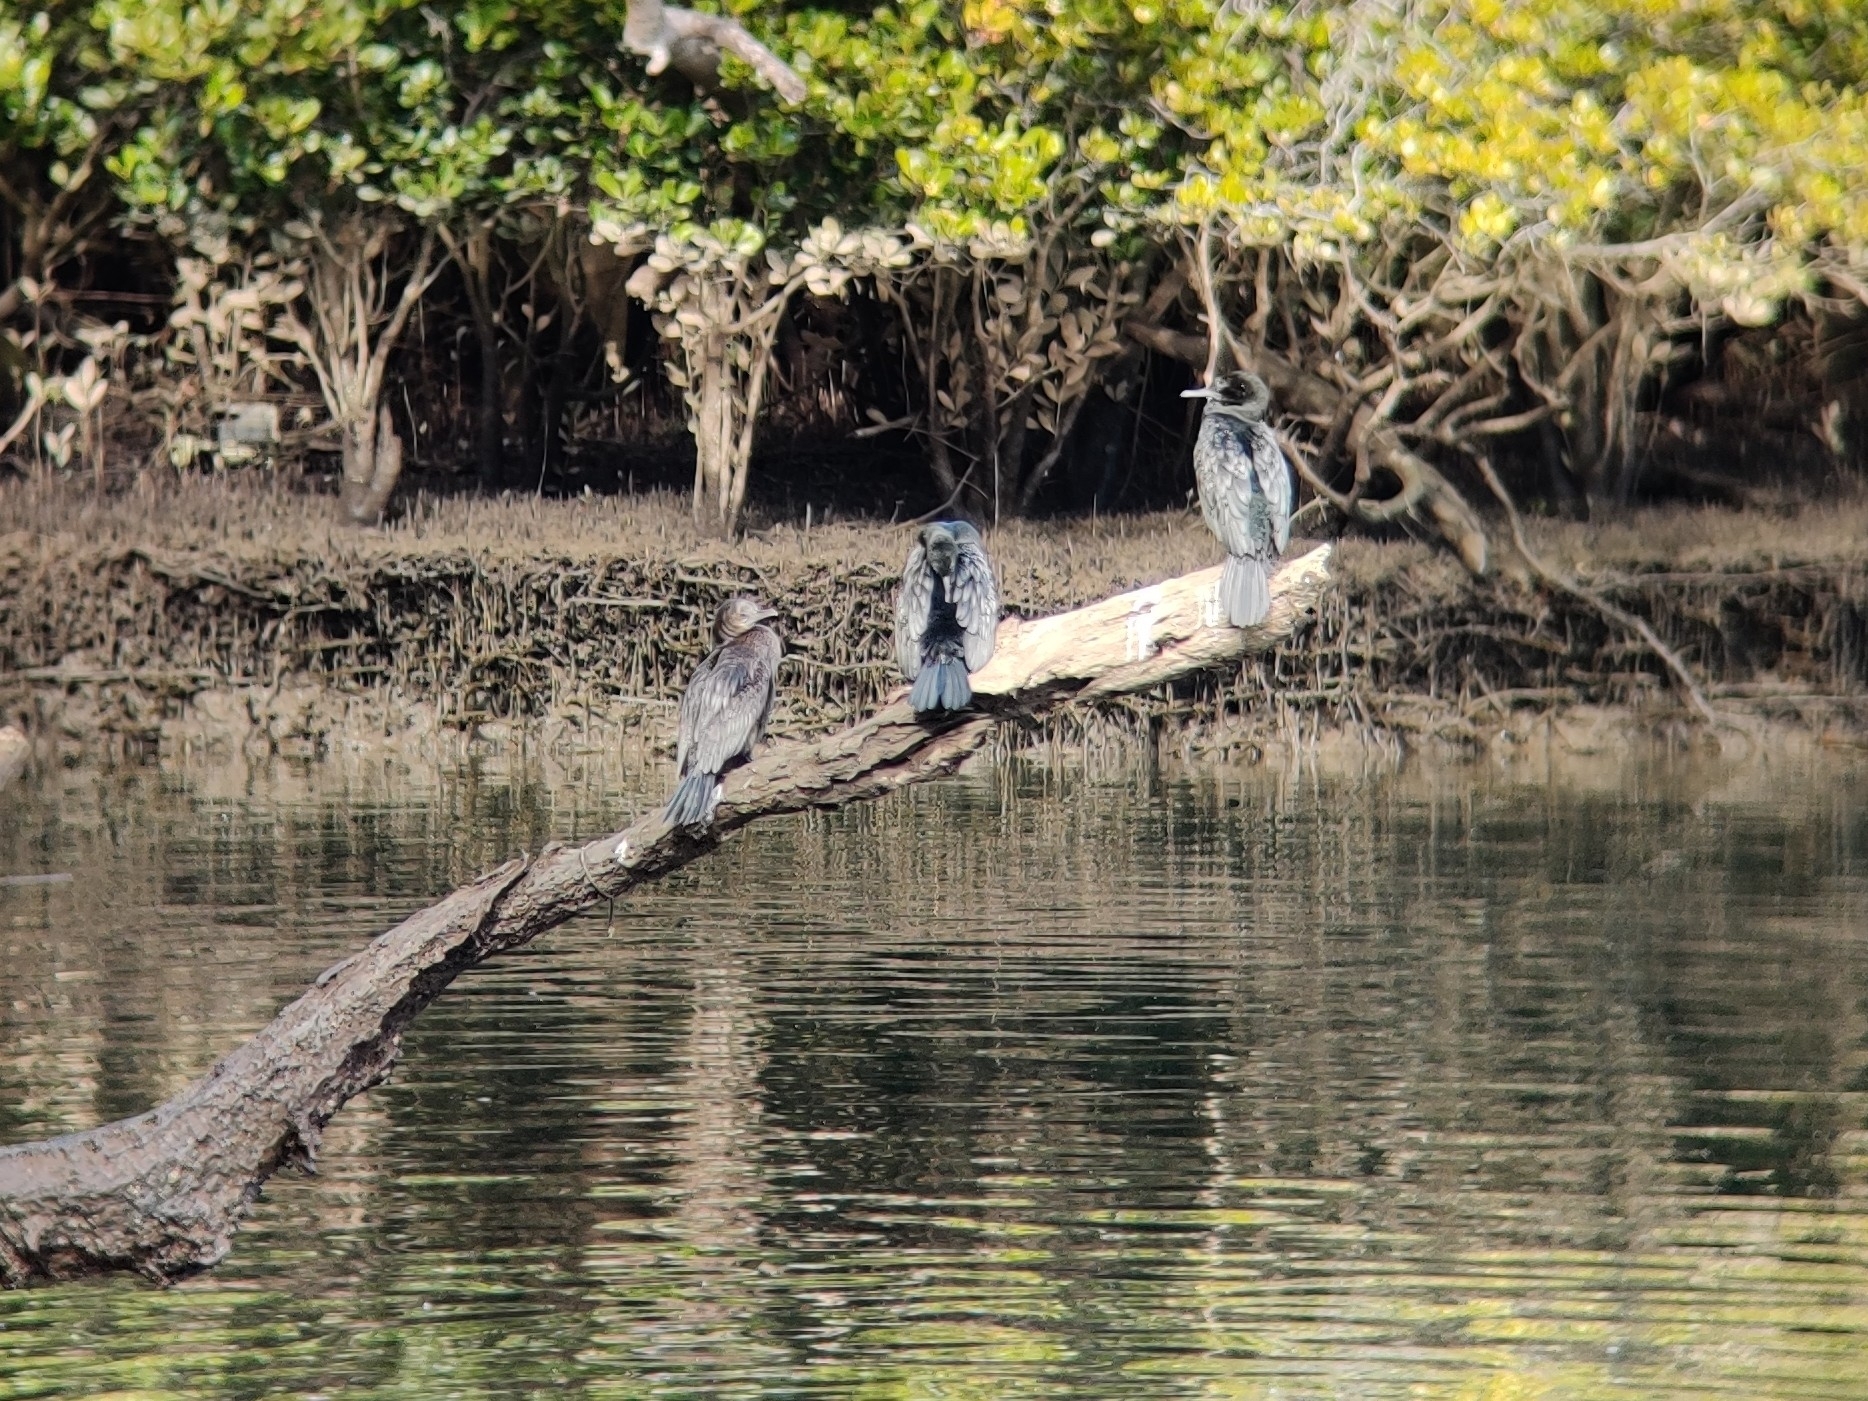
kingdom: Animalia
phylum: Chordata
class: Aves
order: Suliformes
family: Phalacrocoracidae
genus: Phalacrocorax
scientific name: Phalacrocorax sulcirostris
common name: Little black cormorant
